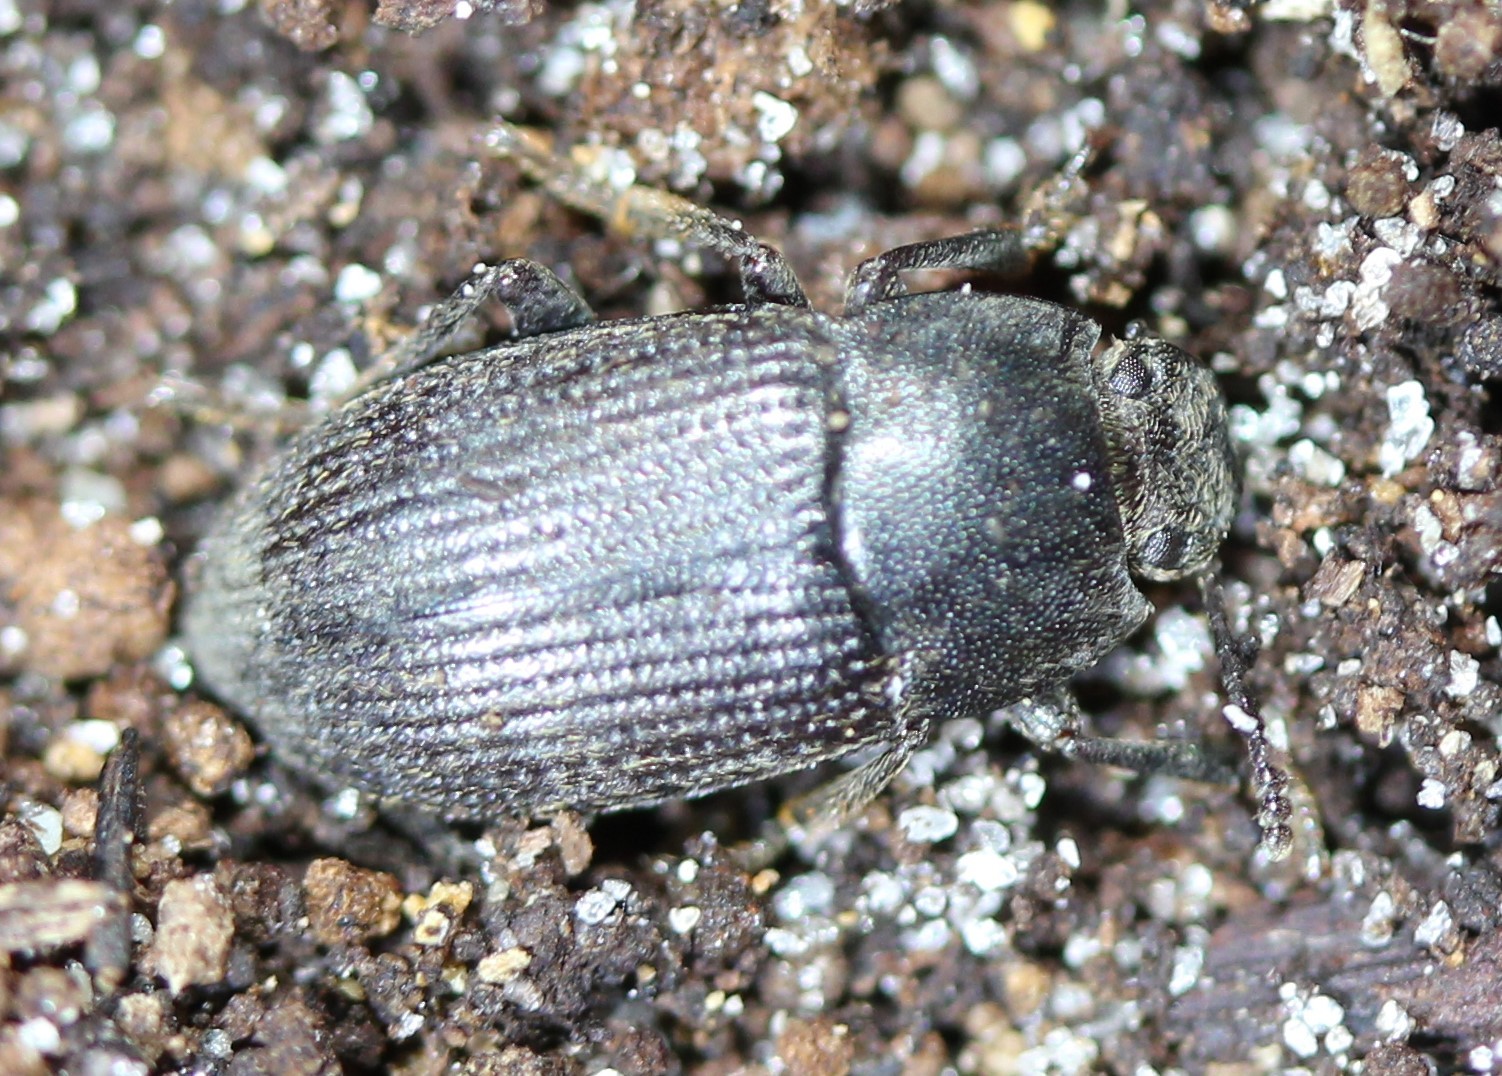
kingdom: Animalia
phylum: Arthropoda
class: Insecta
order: Coleoptera
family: Tenebrionidae
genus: Asiopus
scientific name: Asiopus
